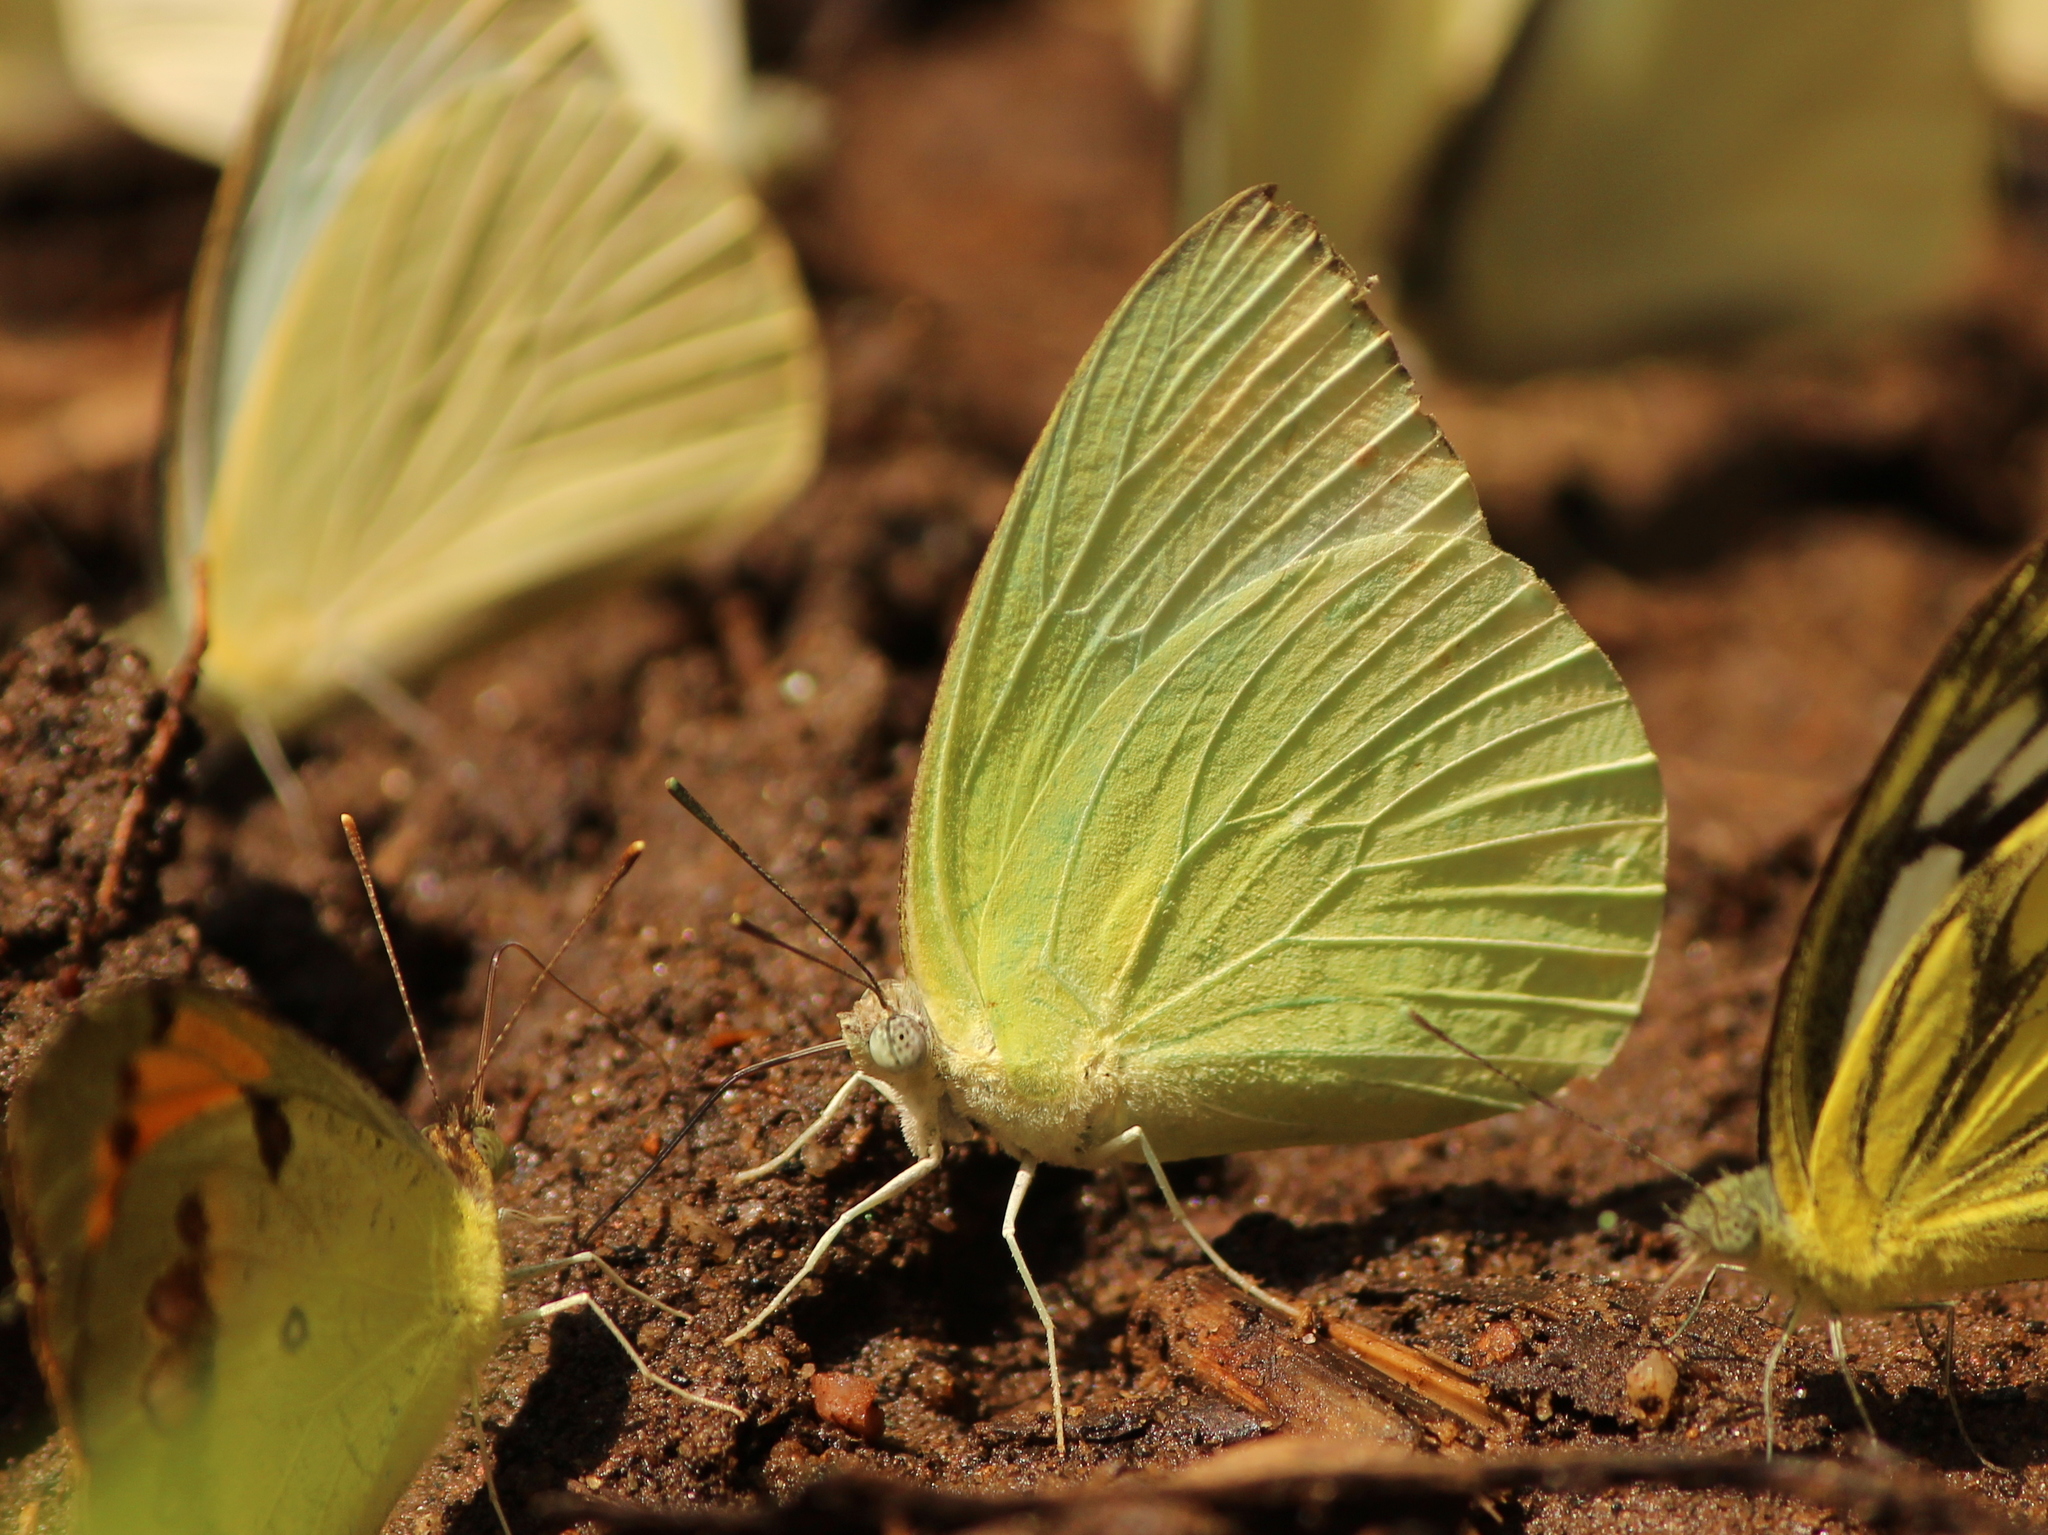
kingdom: Animalia
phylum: Arthropoda
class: Insecta
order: Lepidoptera
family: Pieridae
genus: Catopsilia
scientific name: Catopsilia pomona
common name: Common emigrant
